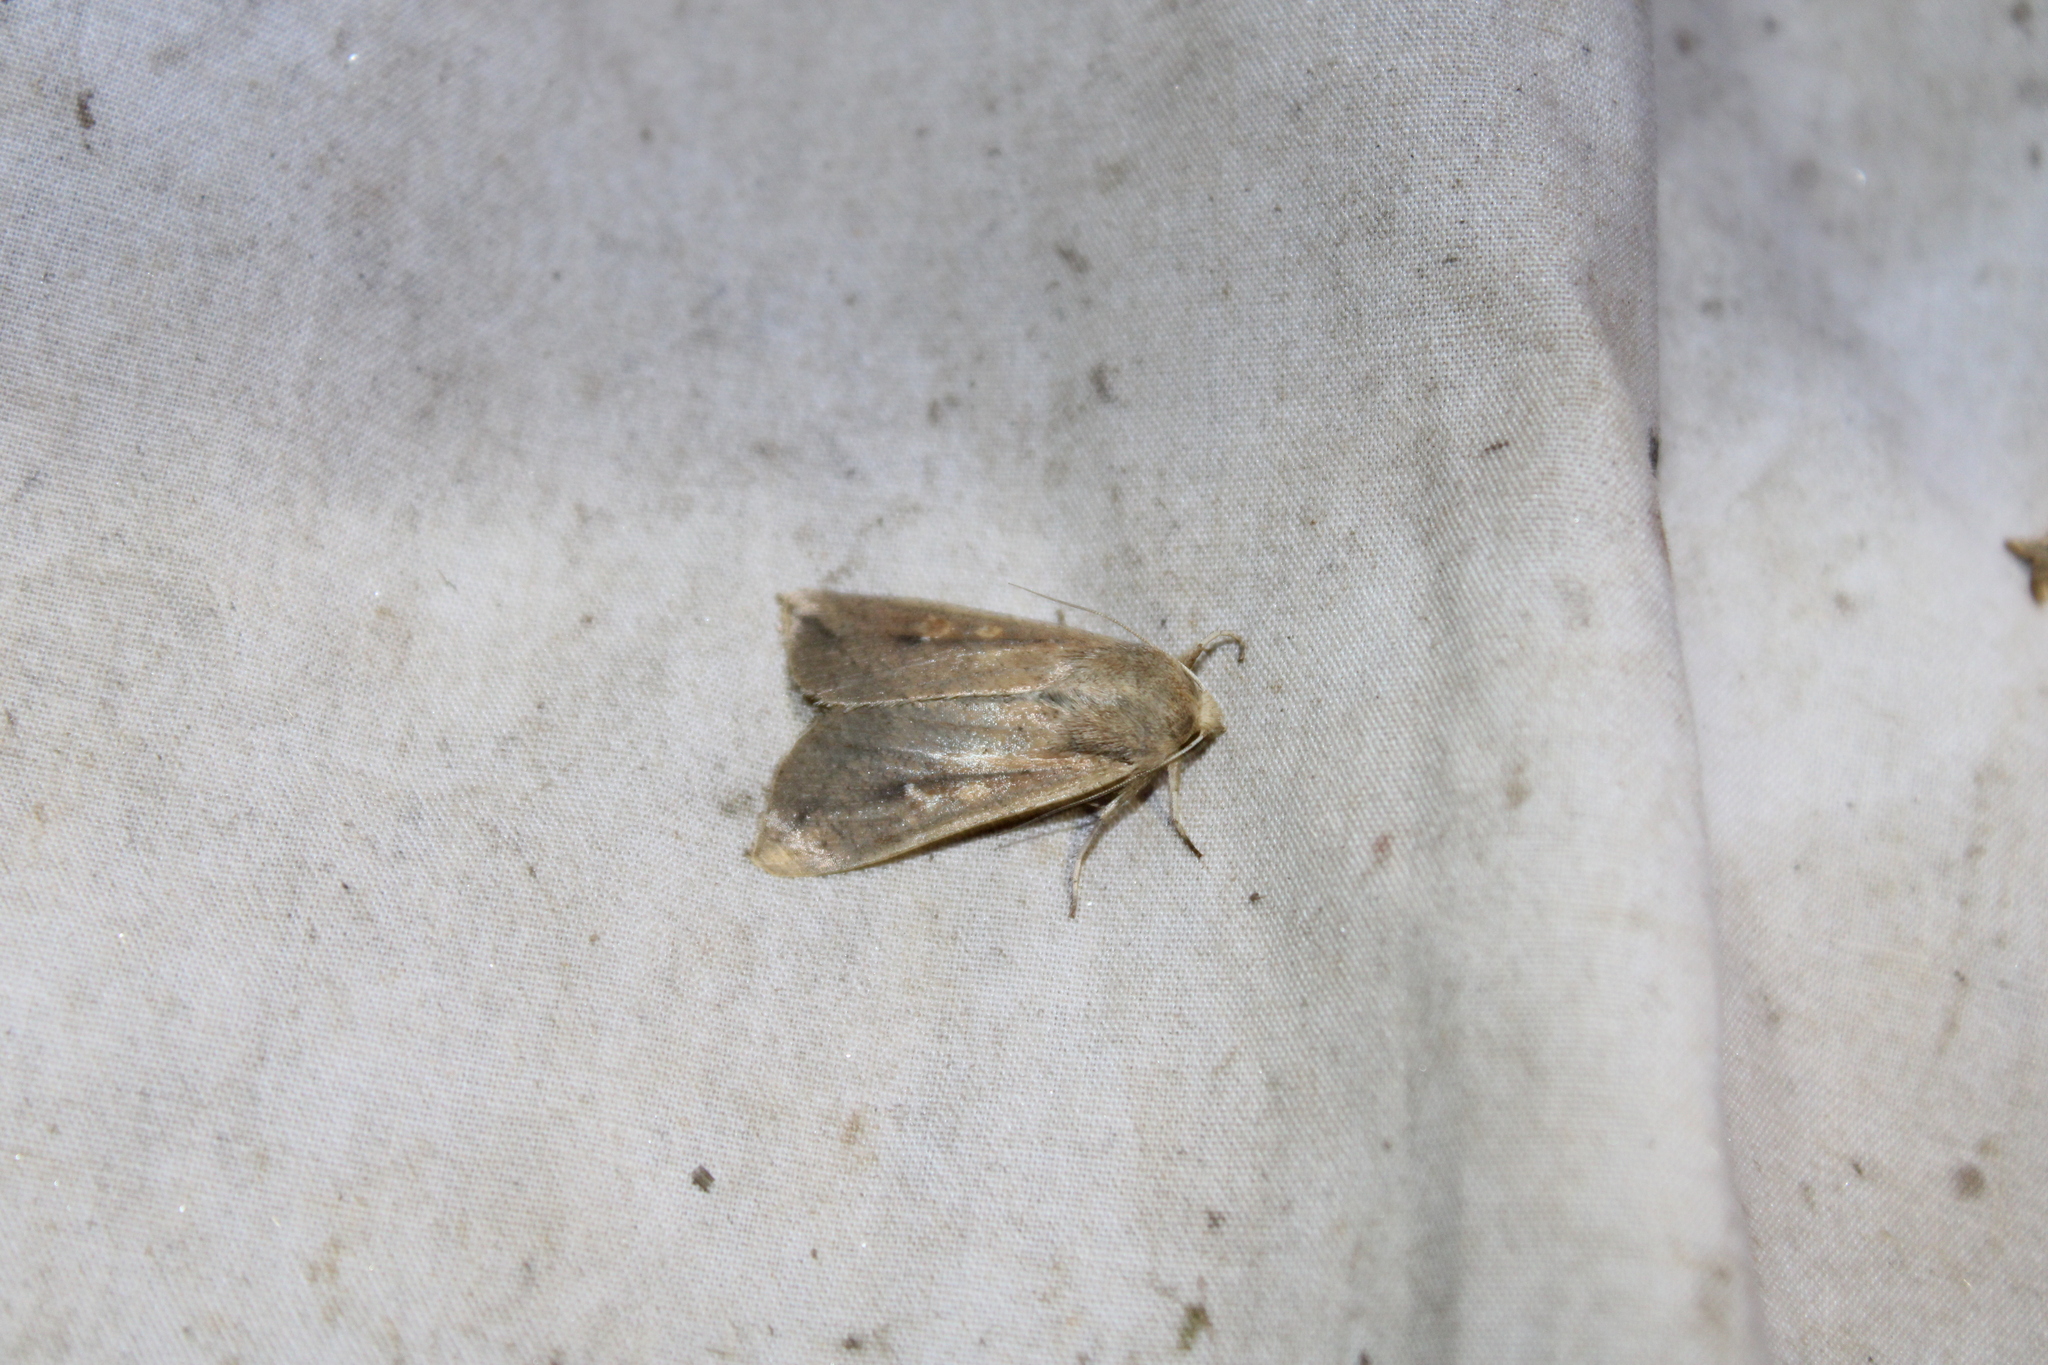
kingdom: Animalia
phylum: Arthropoda
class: Insecta
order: Lepidoptera
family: Noctuidae
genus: Mythimna
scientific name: Mythimna unipuncta
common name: White-speck
